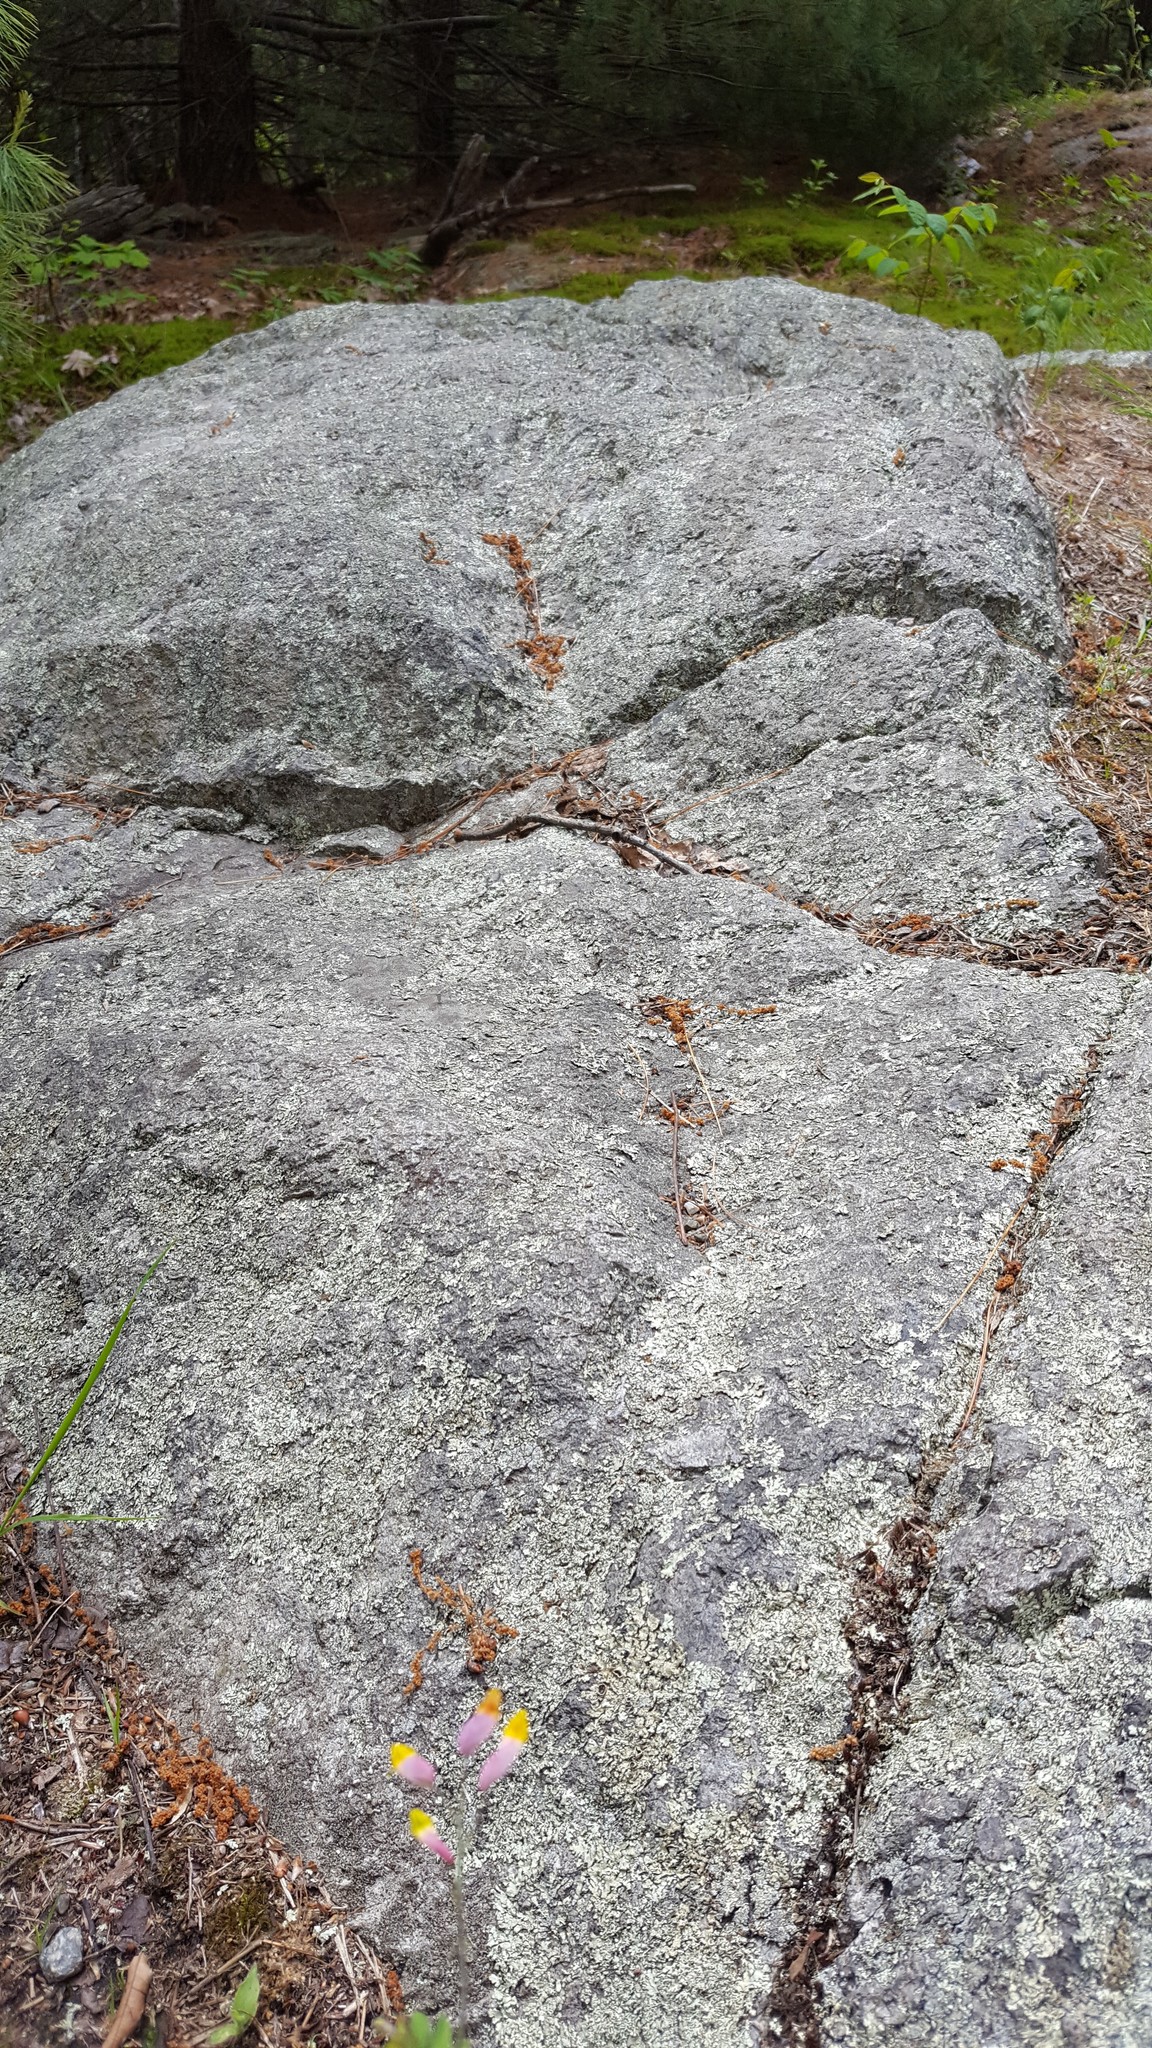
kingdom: Plantae
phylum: Tracheophyta
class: Magnoliopsida
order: Ranunculales
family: Papaveraceae
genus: Capnoides
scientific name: Capnoides sempervirens
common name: Rock harlequin
